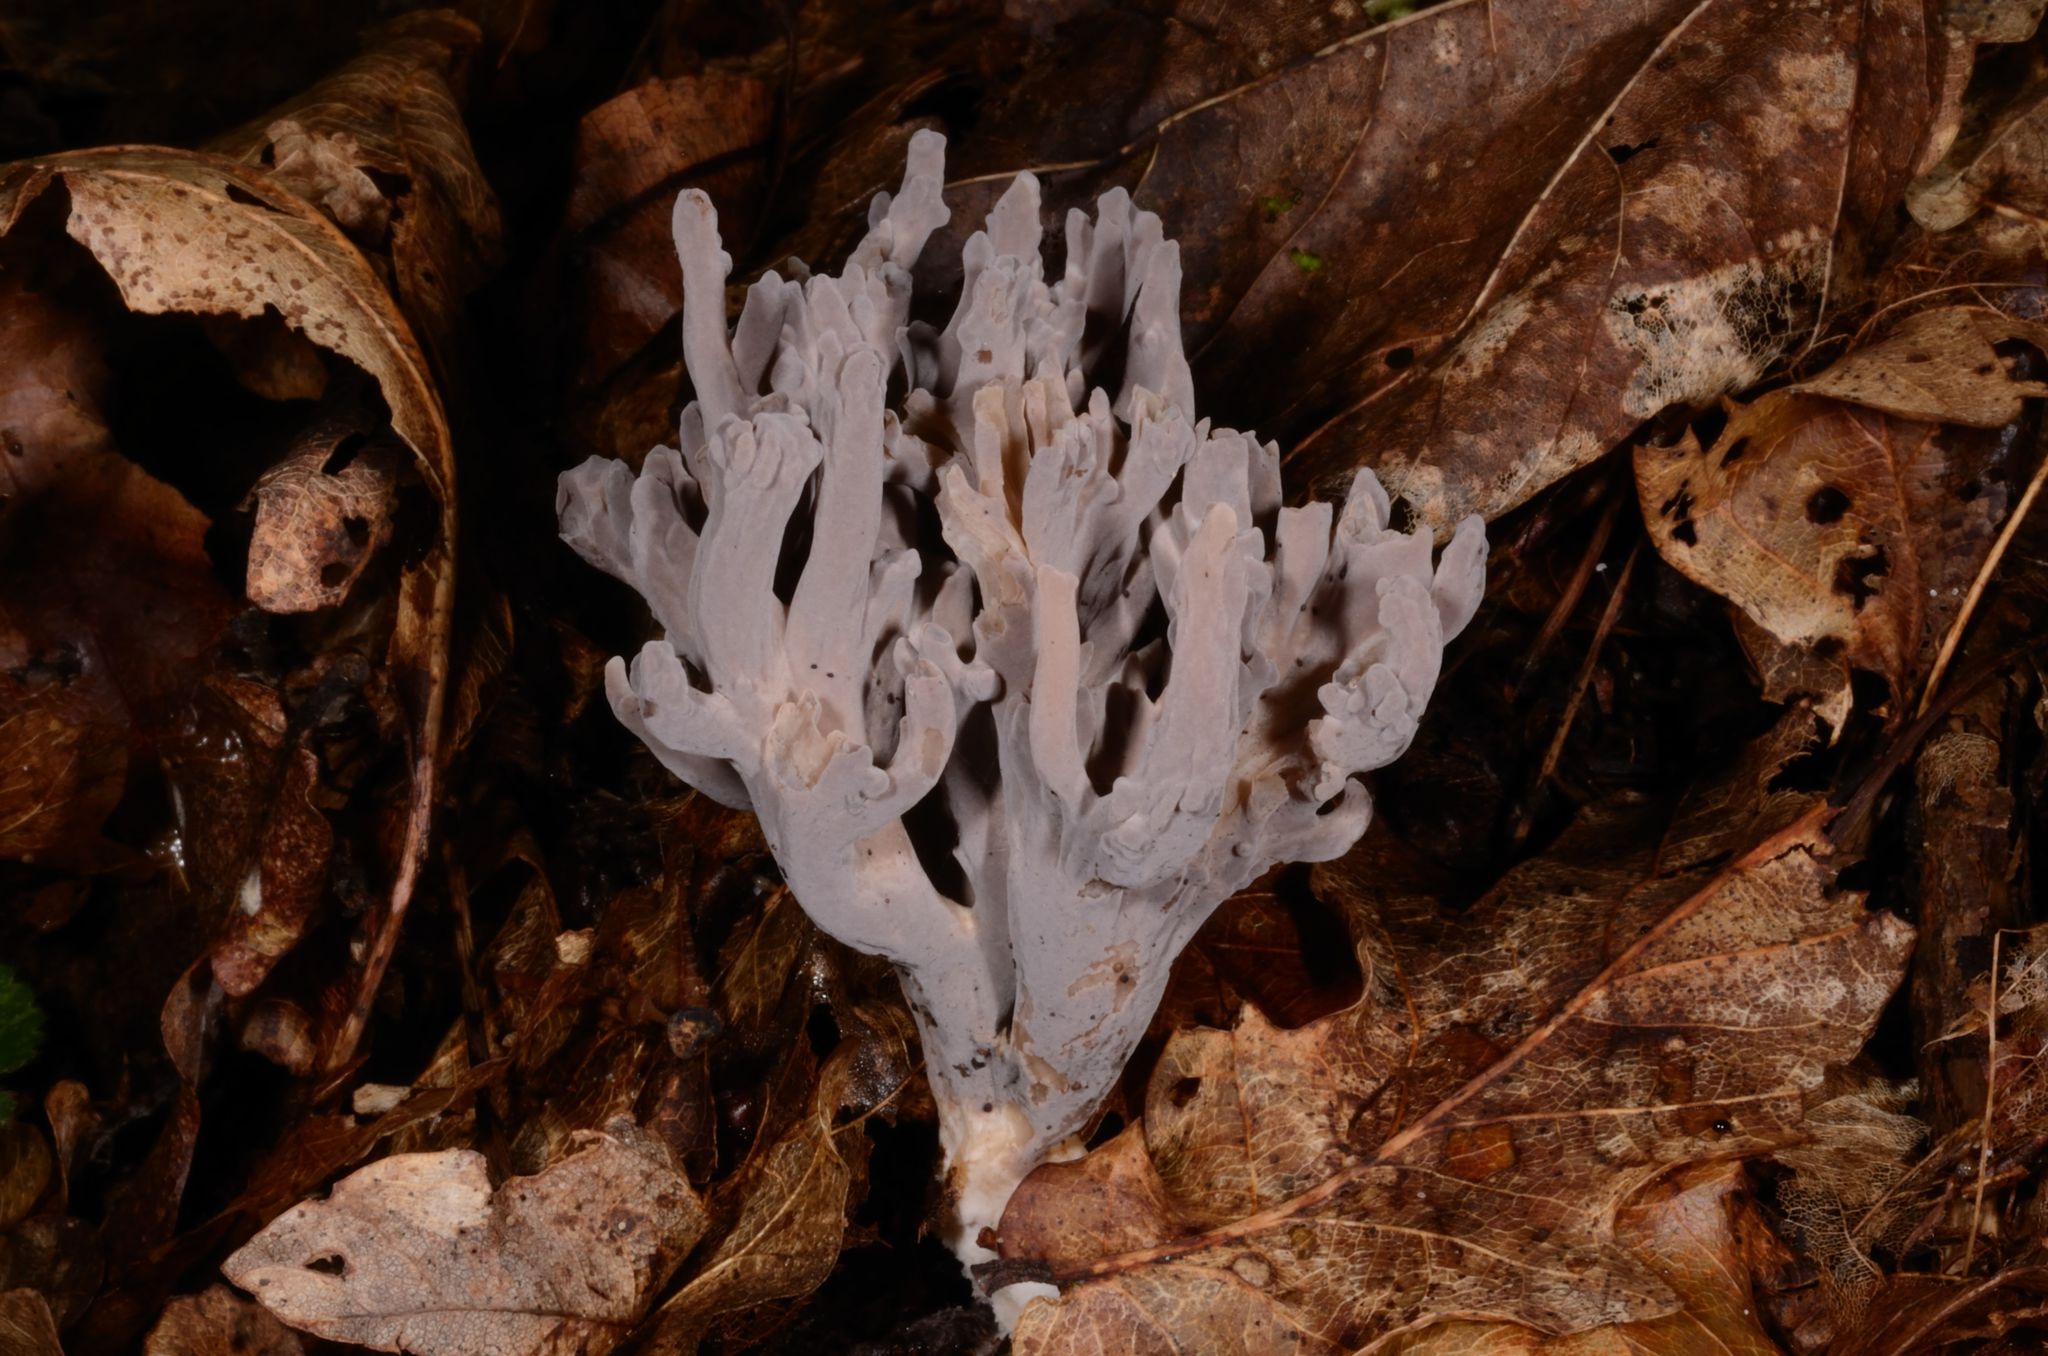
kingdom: Fungi
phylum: Basidiomycota
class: Agaricomycetes
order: Cantharellales
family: Hydnaceae
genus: Clavulina
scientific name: Clavulina cinerea
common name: Grey coral
